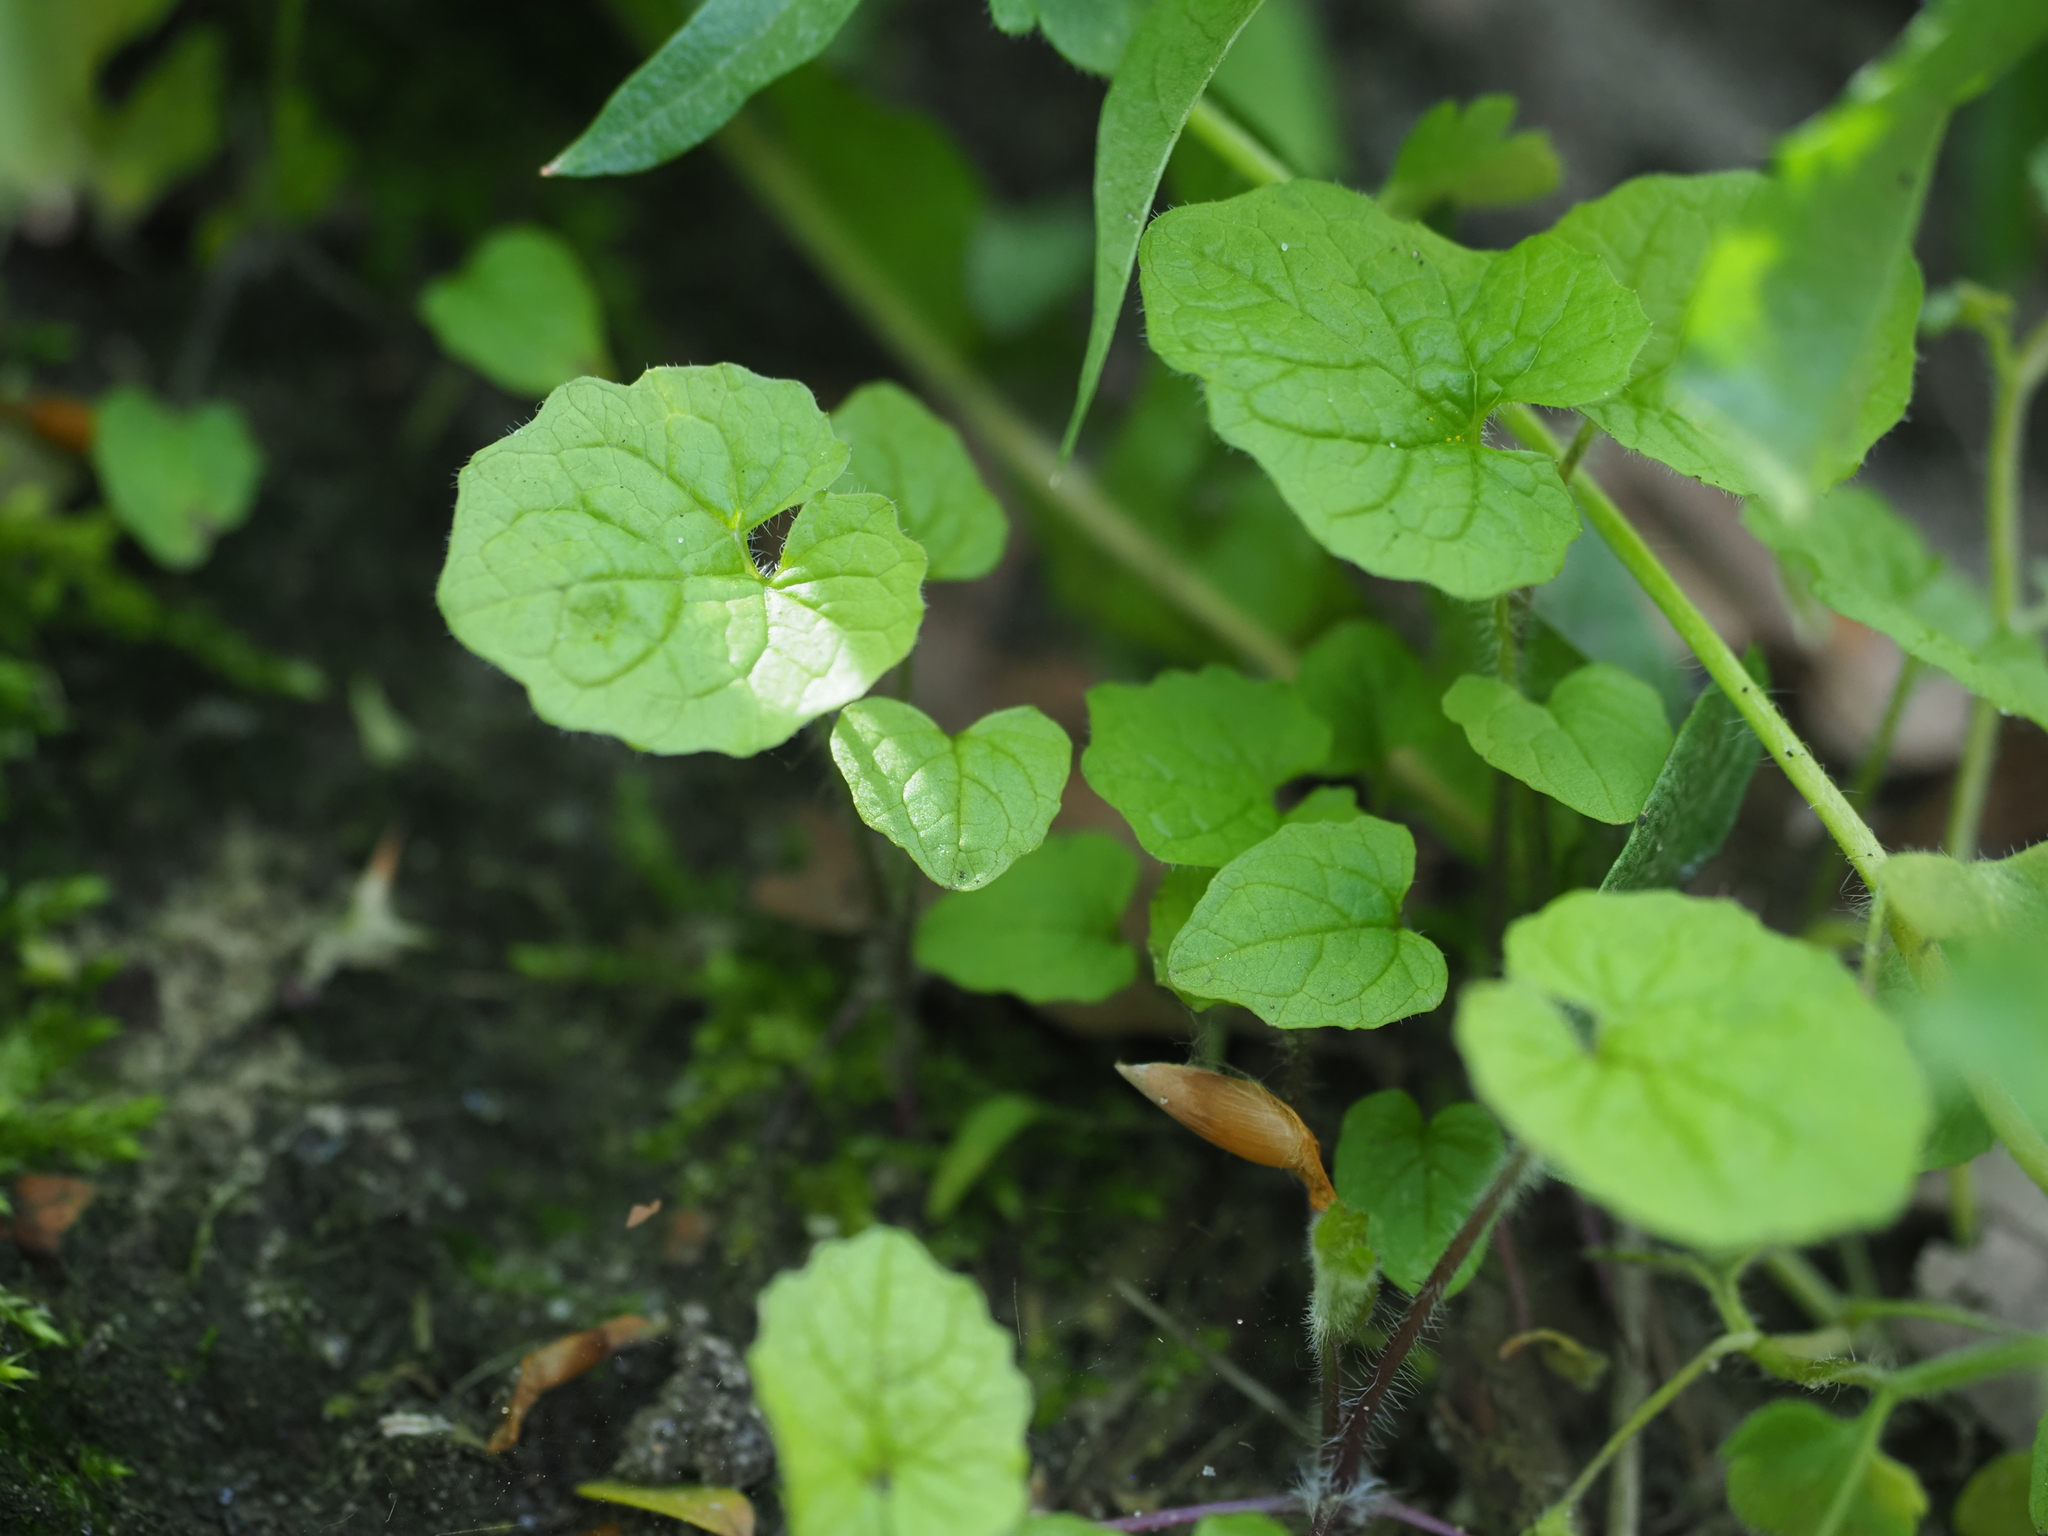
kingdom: Plantae
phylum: Tracheophyta
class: Magnoliopsida
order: Brassicales
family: Brassicaceae
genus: Alliaria
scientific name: Alliaria petiolata
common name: Garlic mustard
